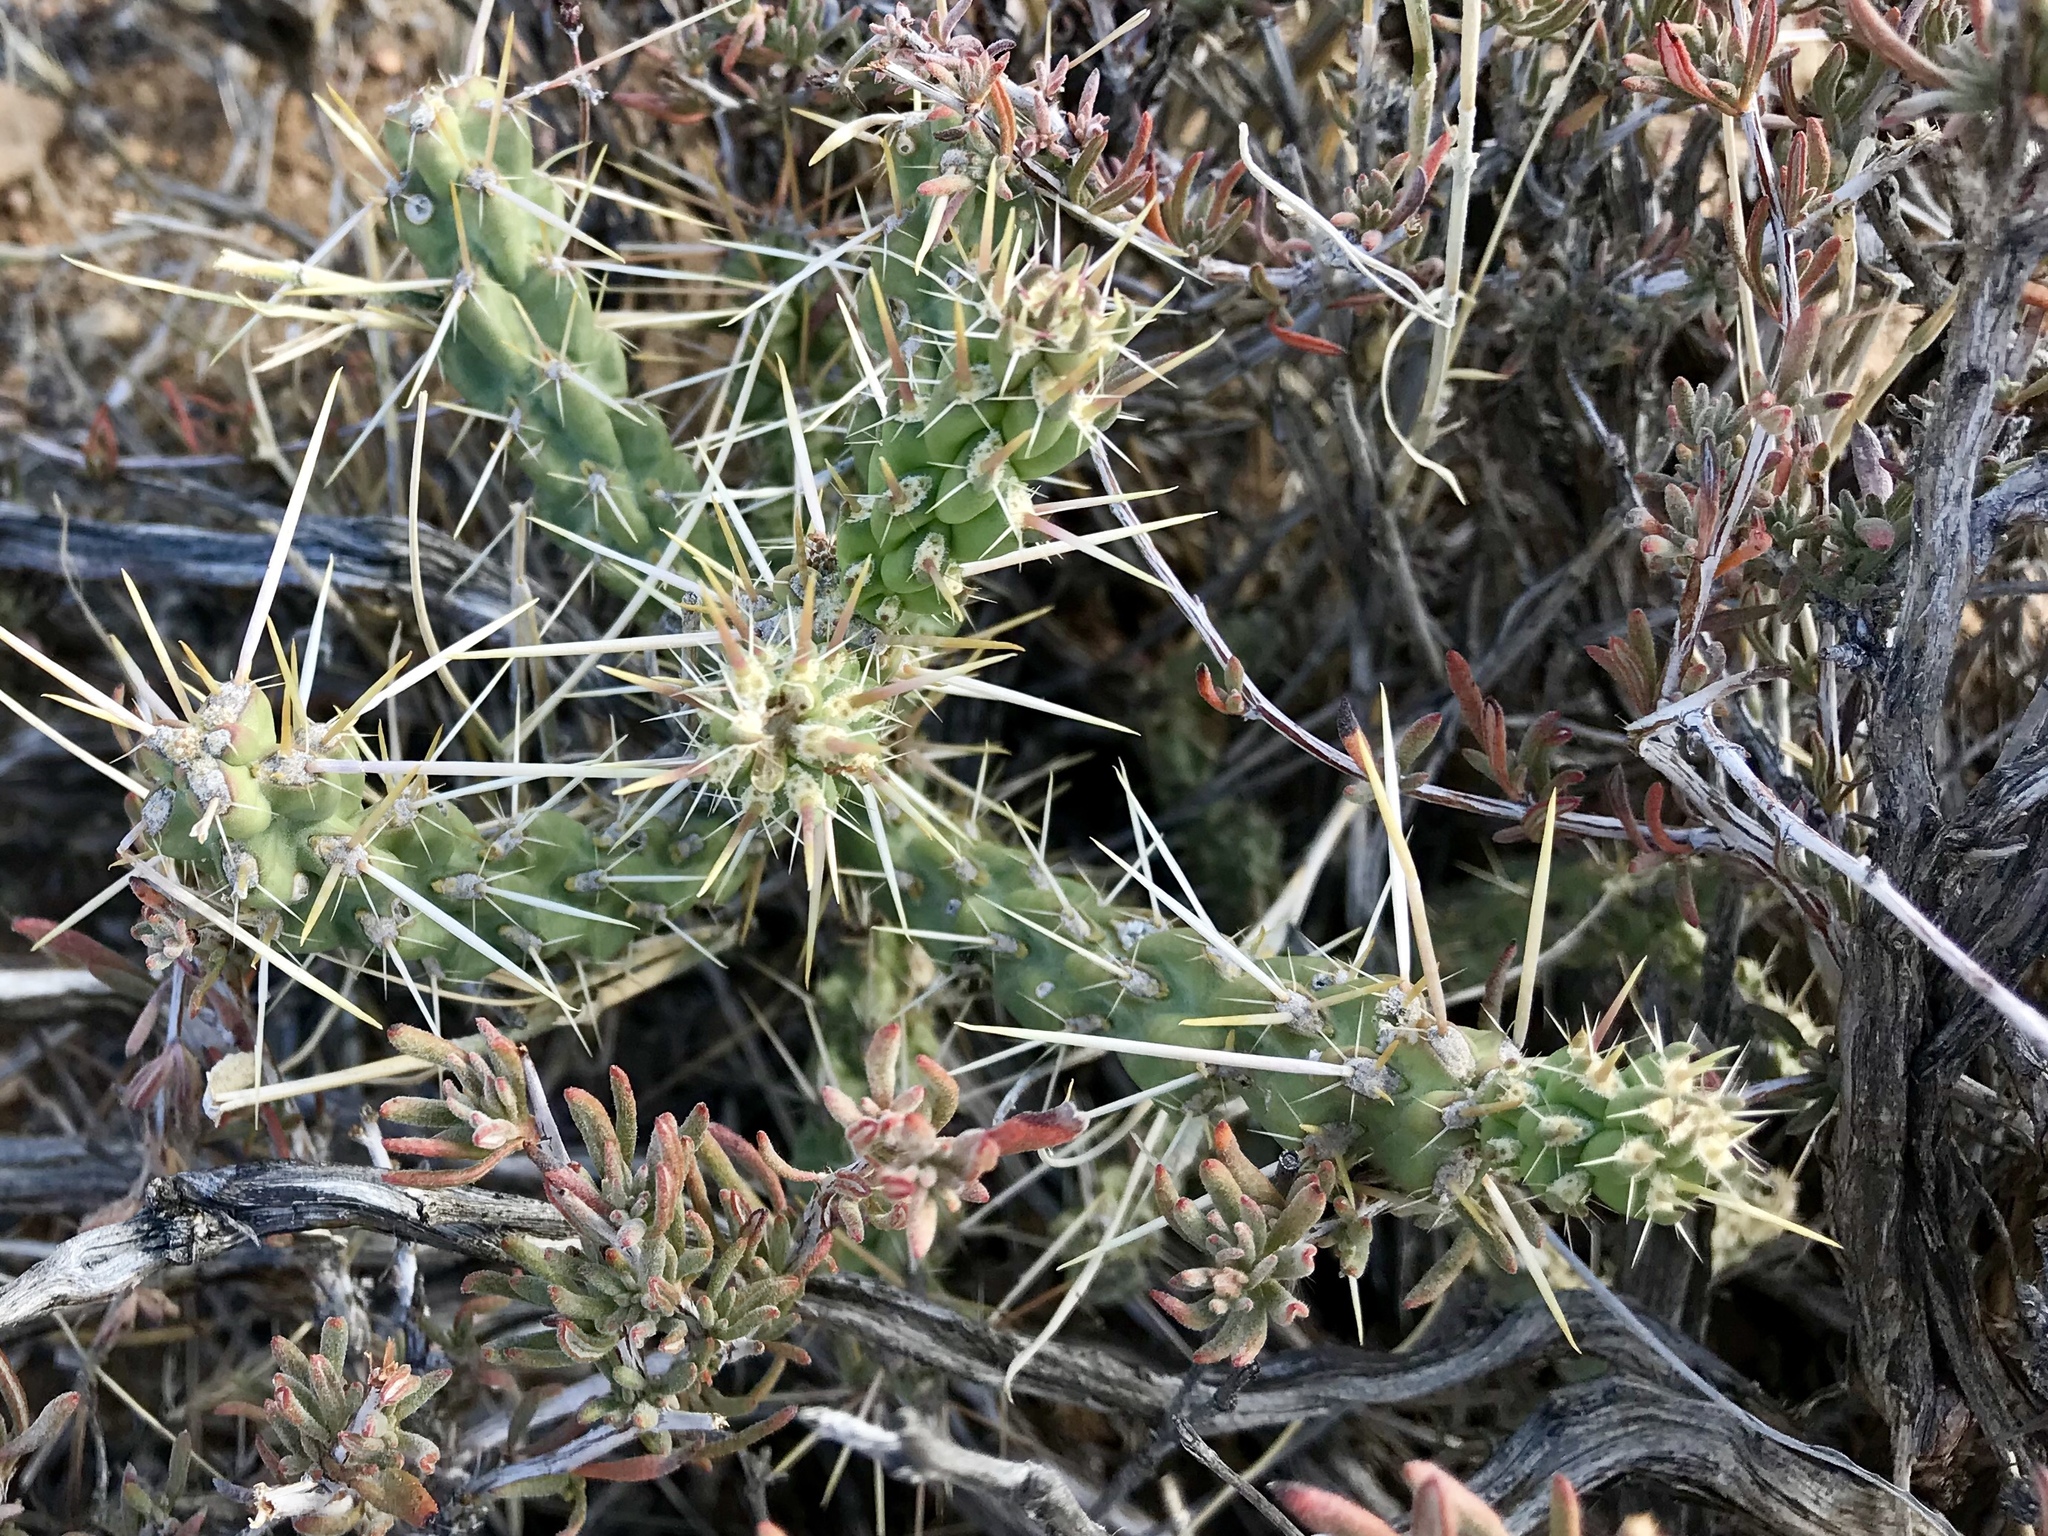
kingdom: Plantae
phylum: Tracheophyta
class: Magnoliopsida
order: Caryophyllales
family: Cactaceae
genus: Cylindropuntia
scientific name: Cylindropuntia whipplei
